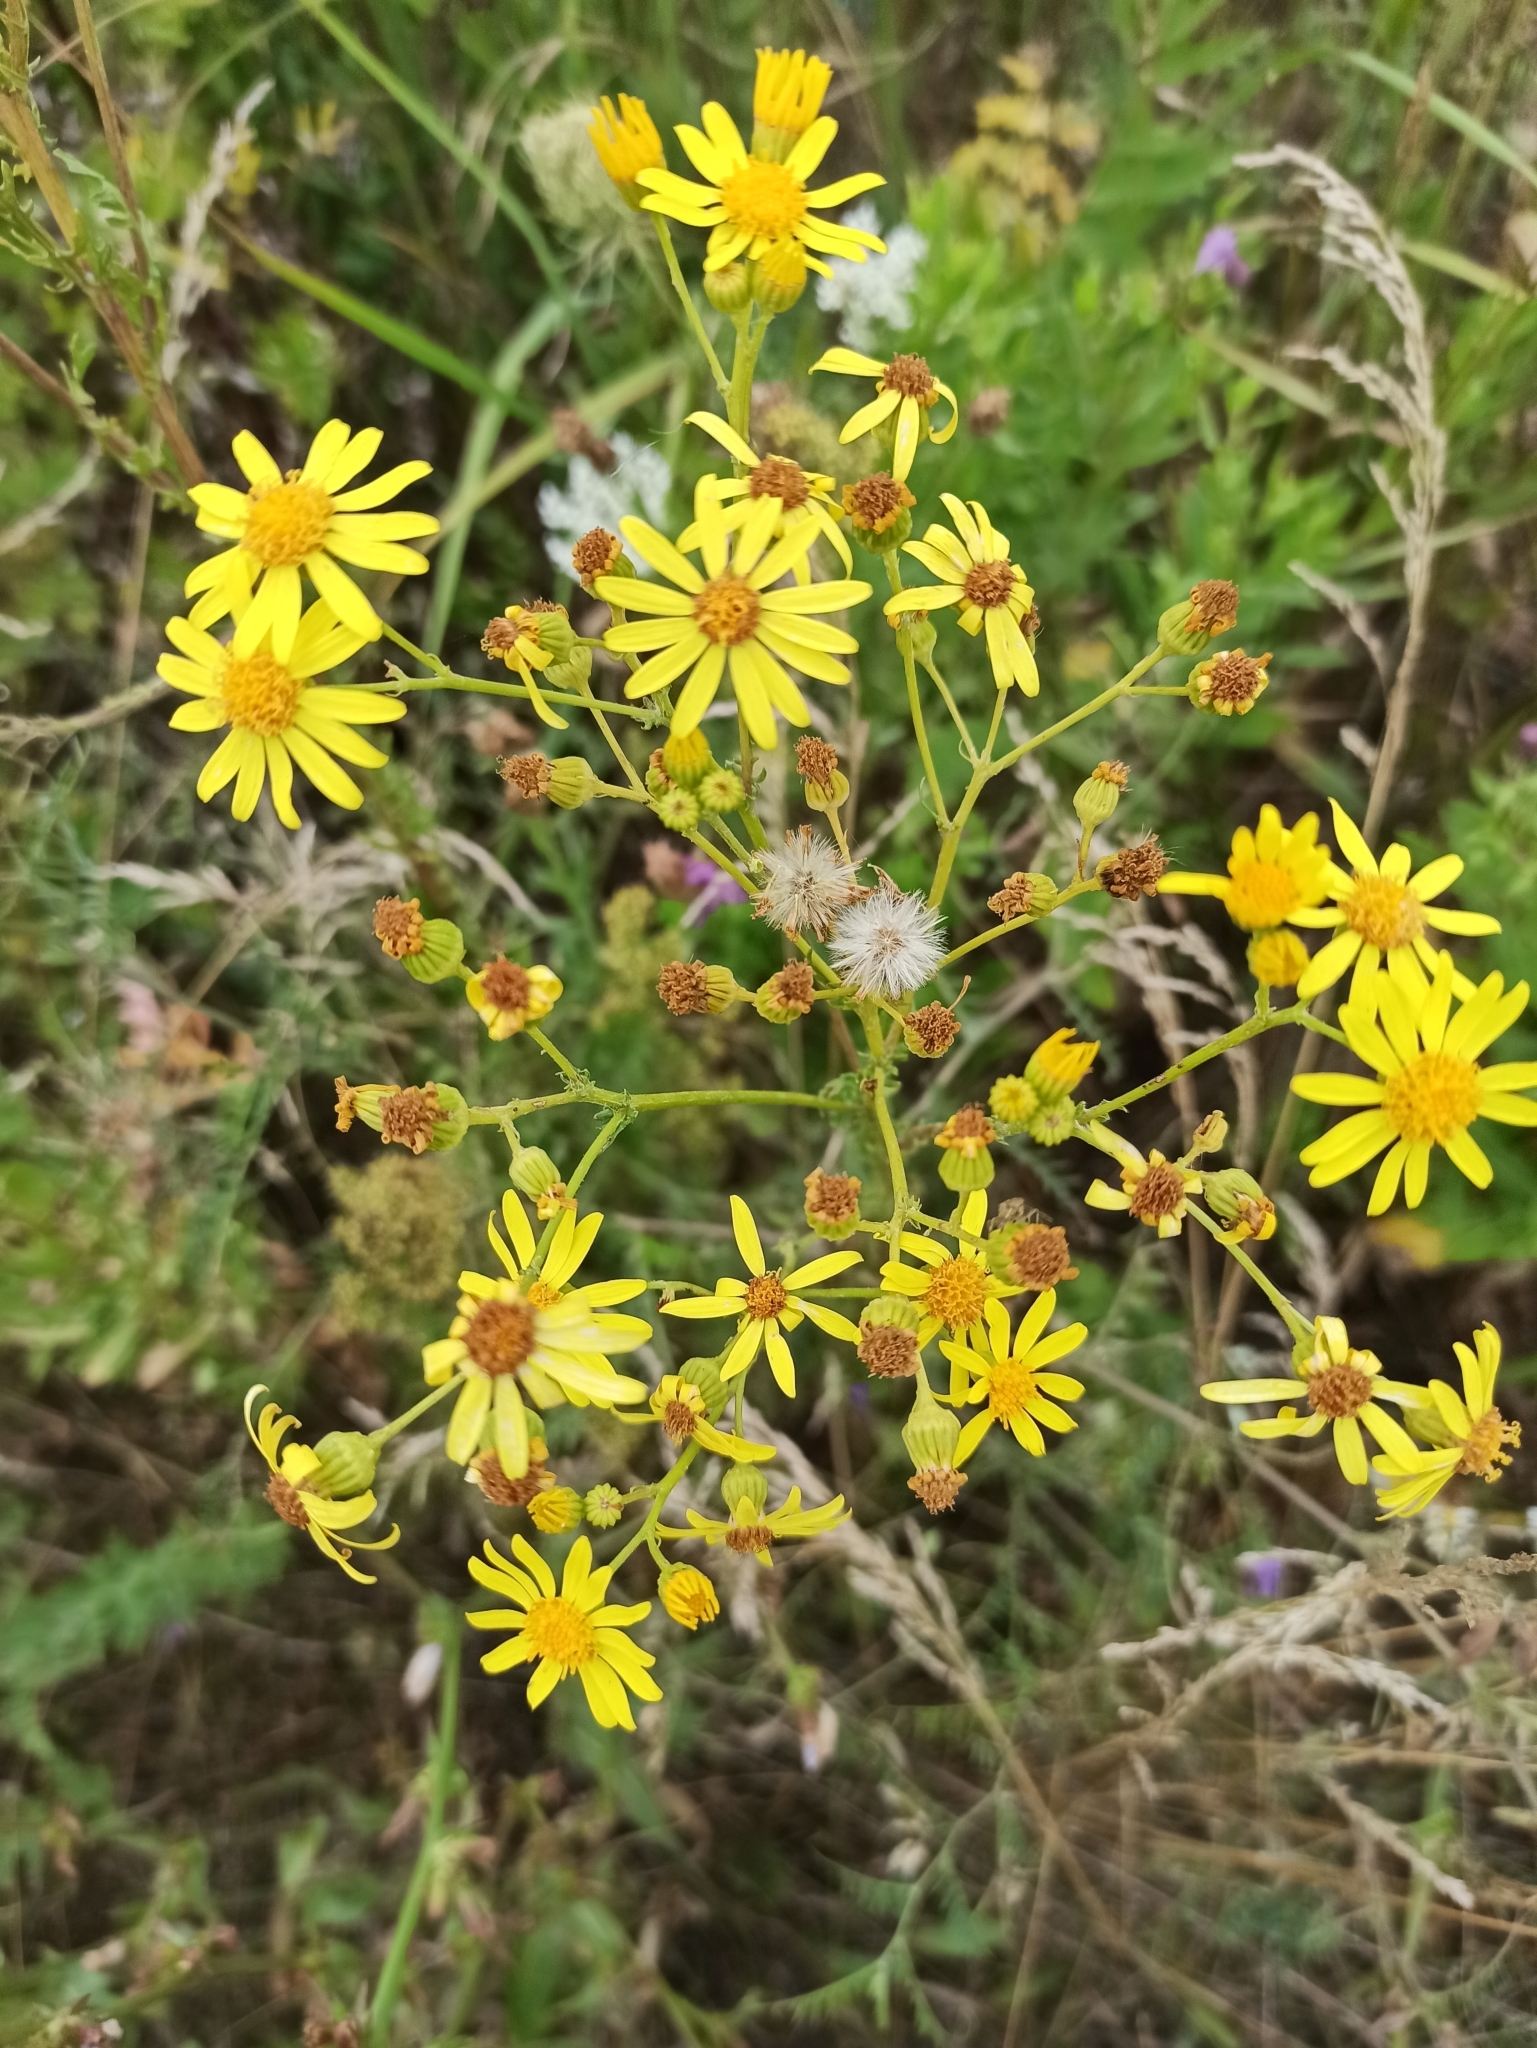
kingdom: Plantae
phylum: Tracheophyta
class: Magnoliopsida
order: Asterales
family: Asteraceae
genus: Jacobaea
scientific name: Jacobaea vulgaris
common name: Stinking willie
